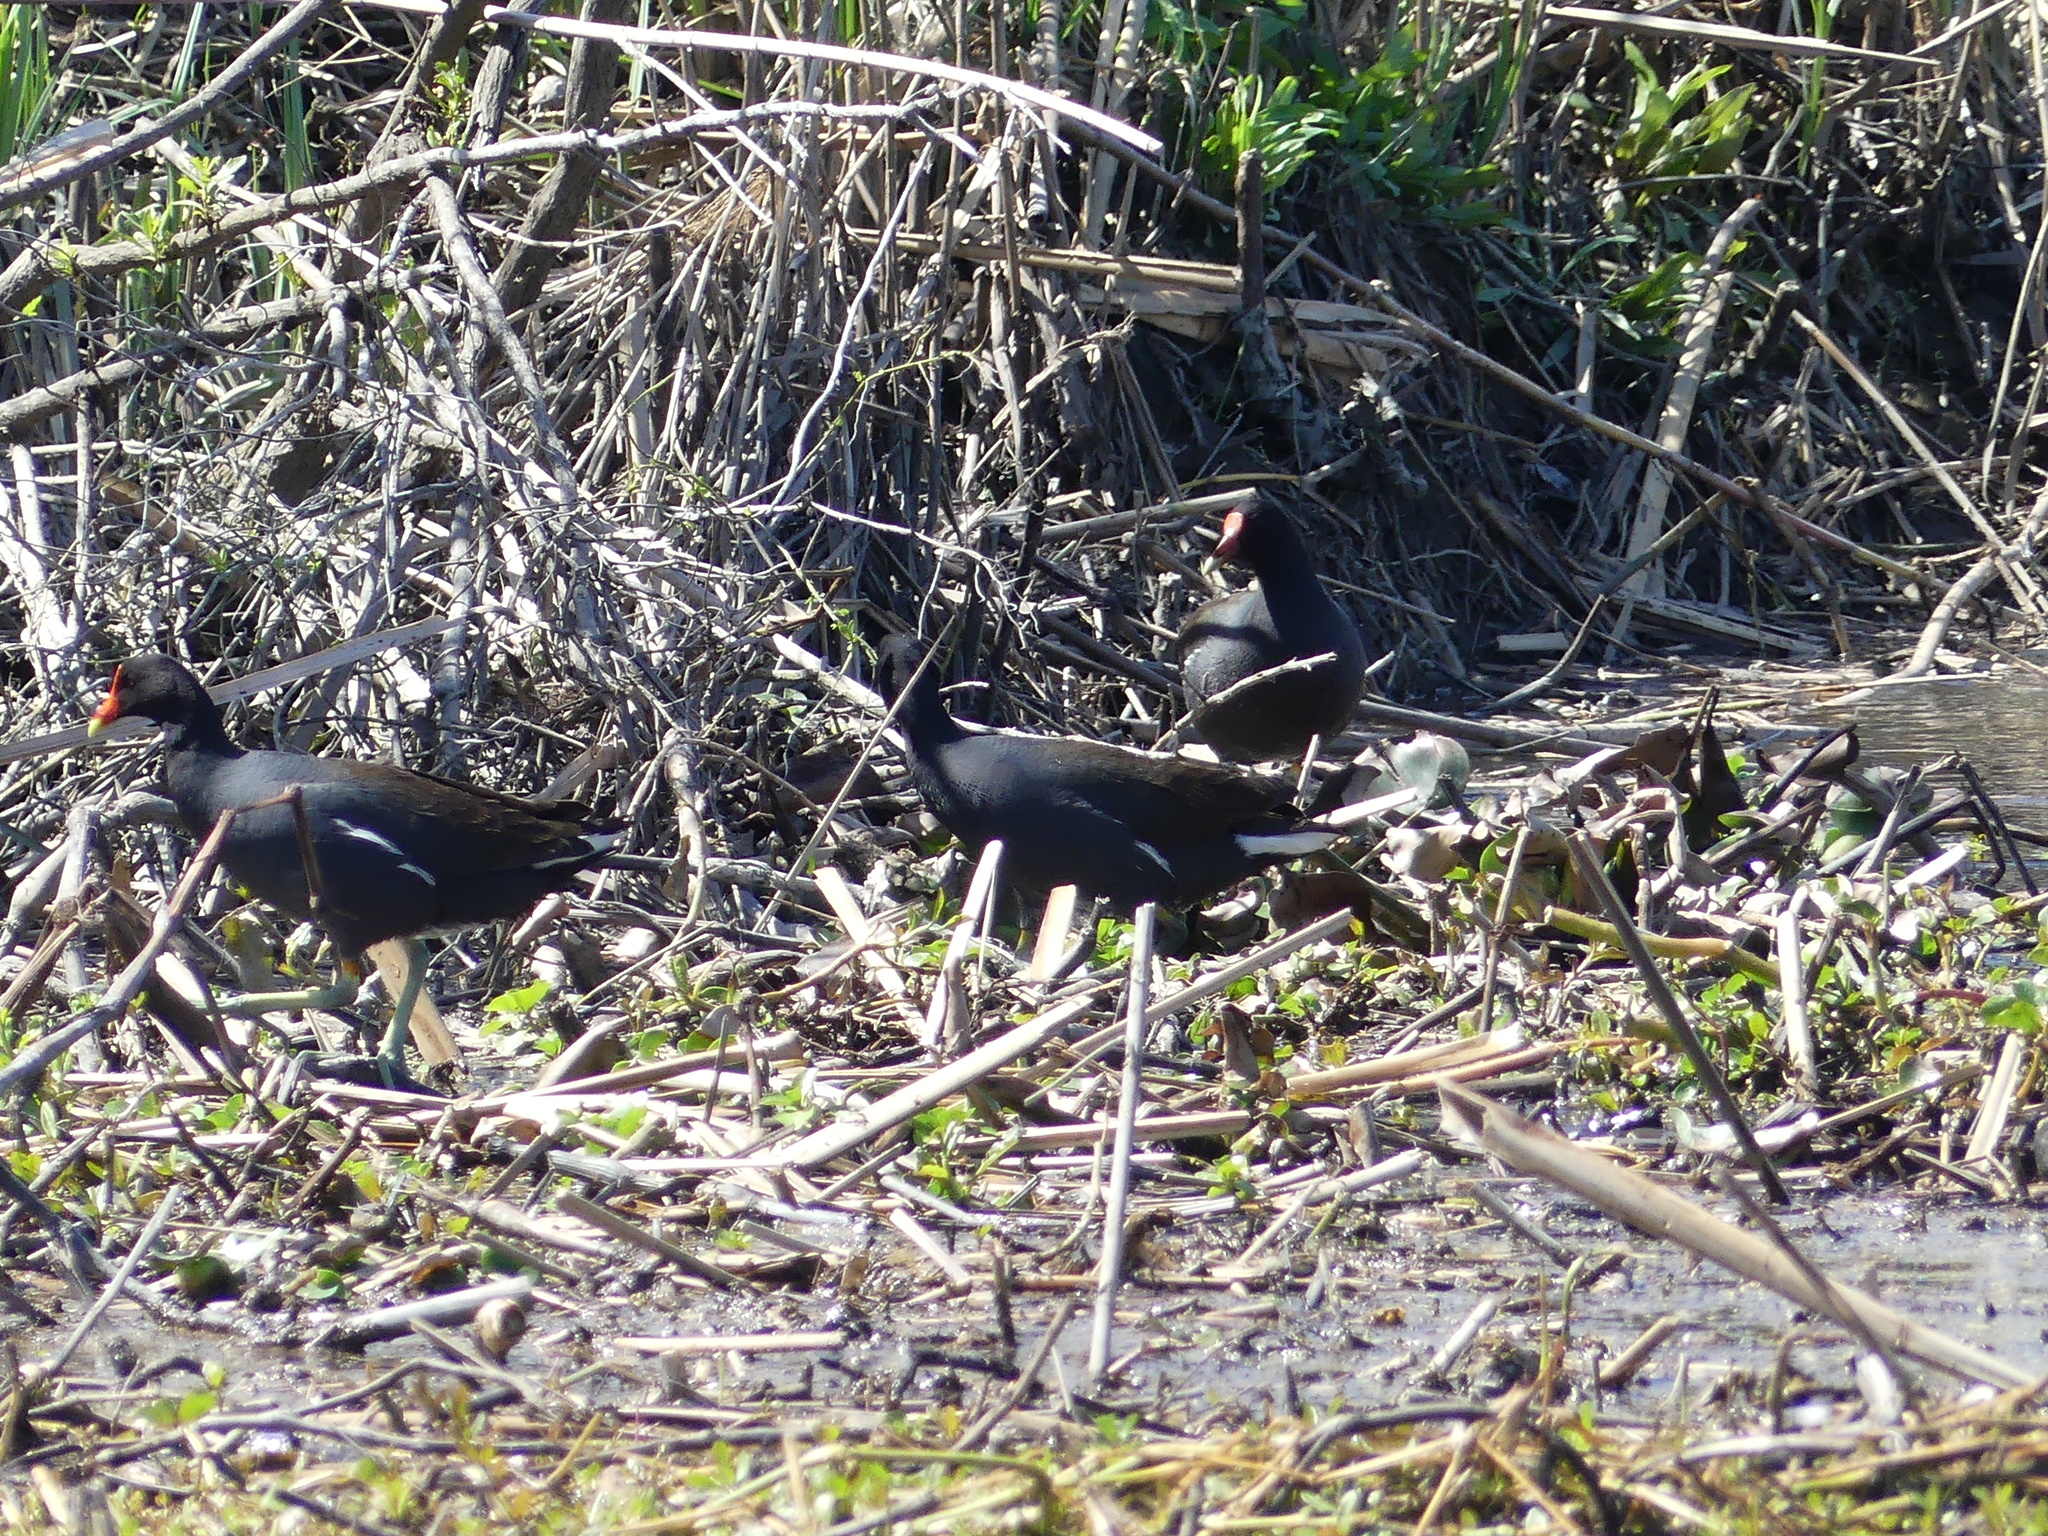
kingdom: Animalia
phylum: Chordata
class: Aves
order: Gruiformes
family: Rallidae
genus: Gallinula
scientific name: Gallinula chloropus
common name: Common moorhen
